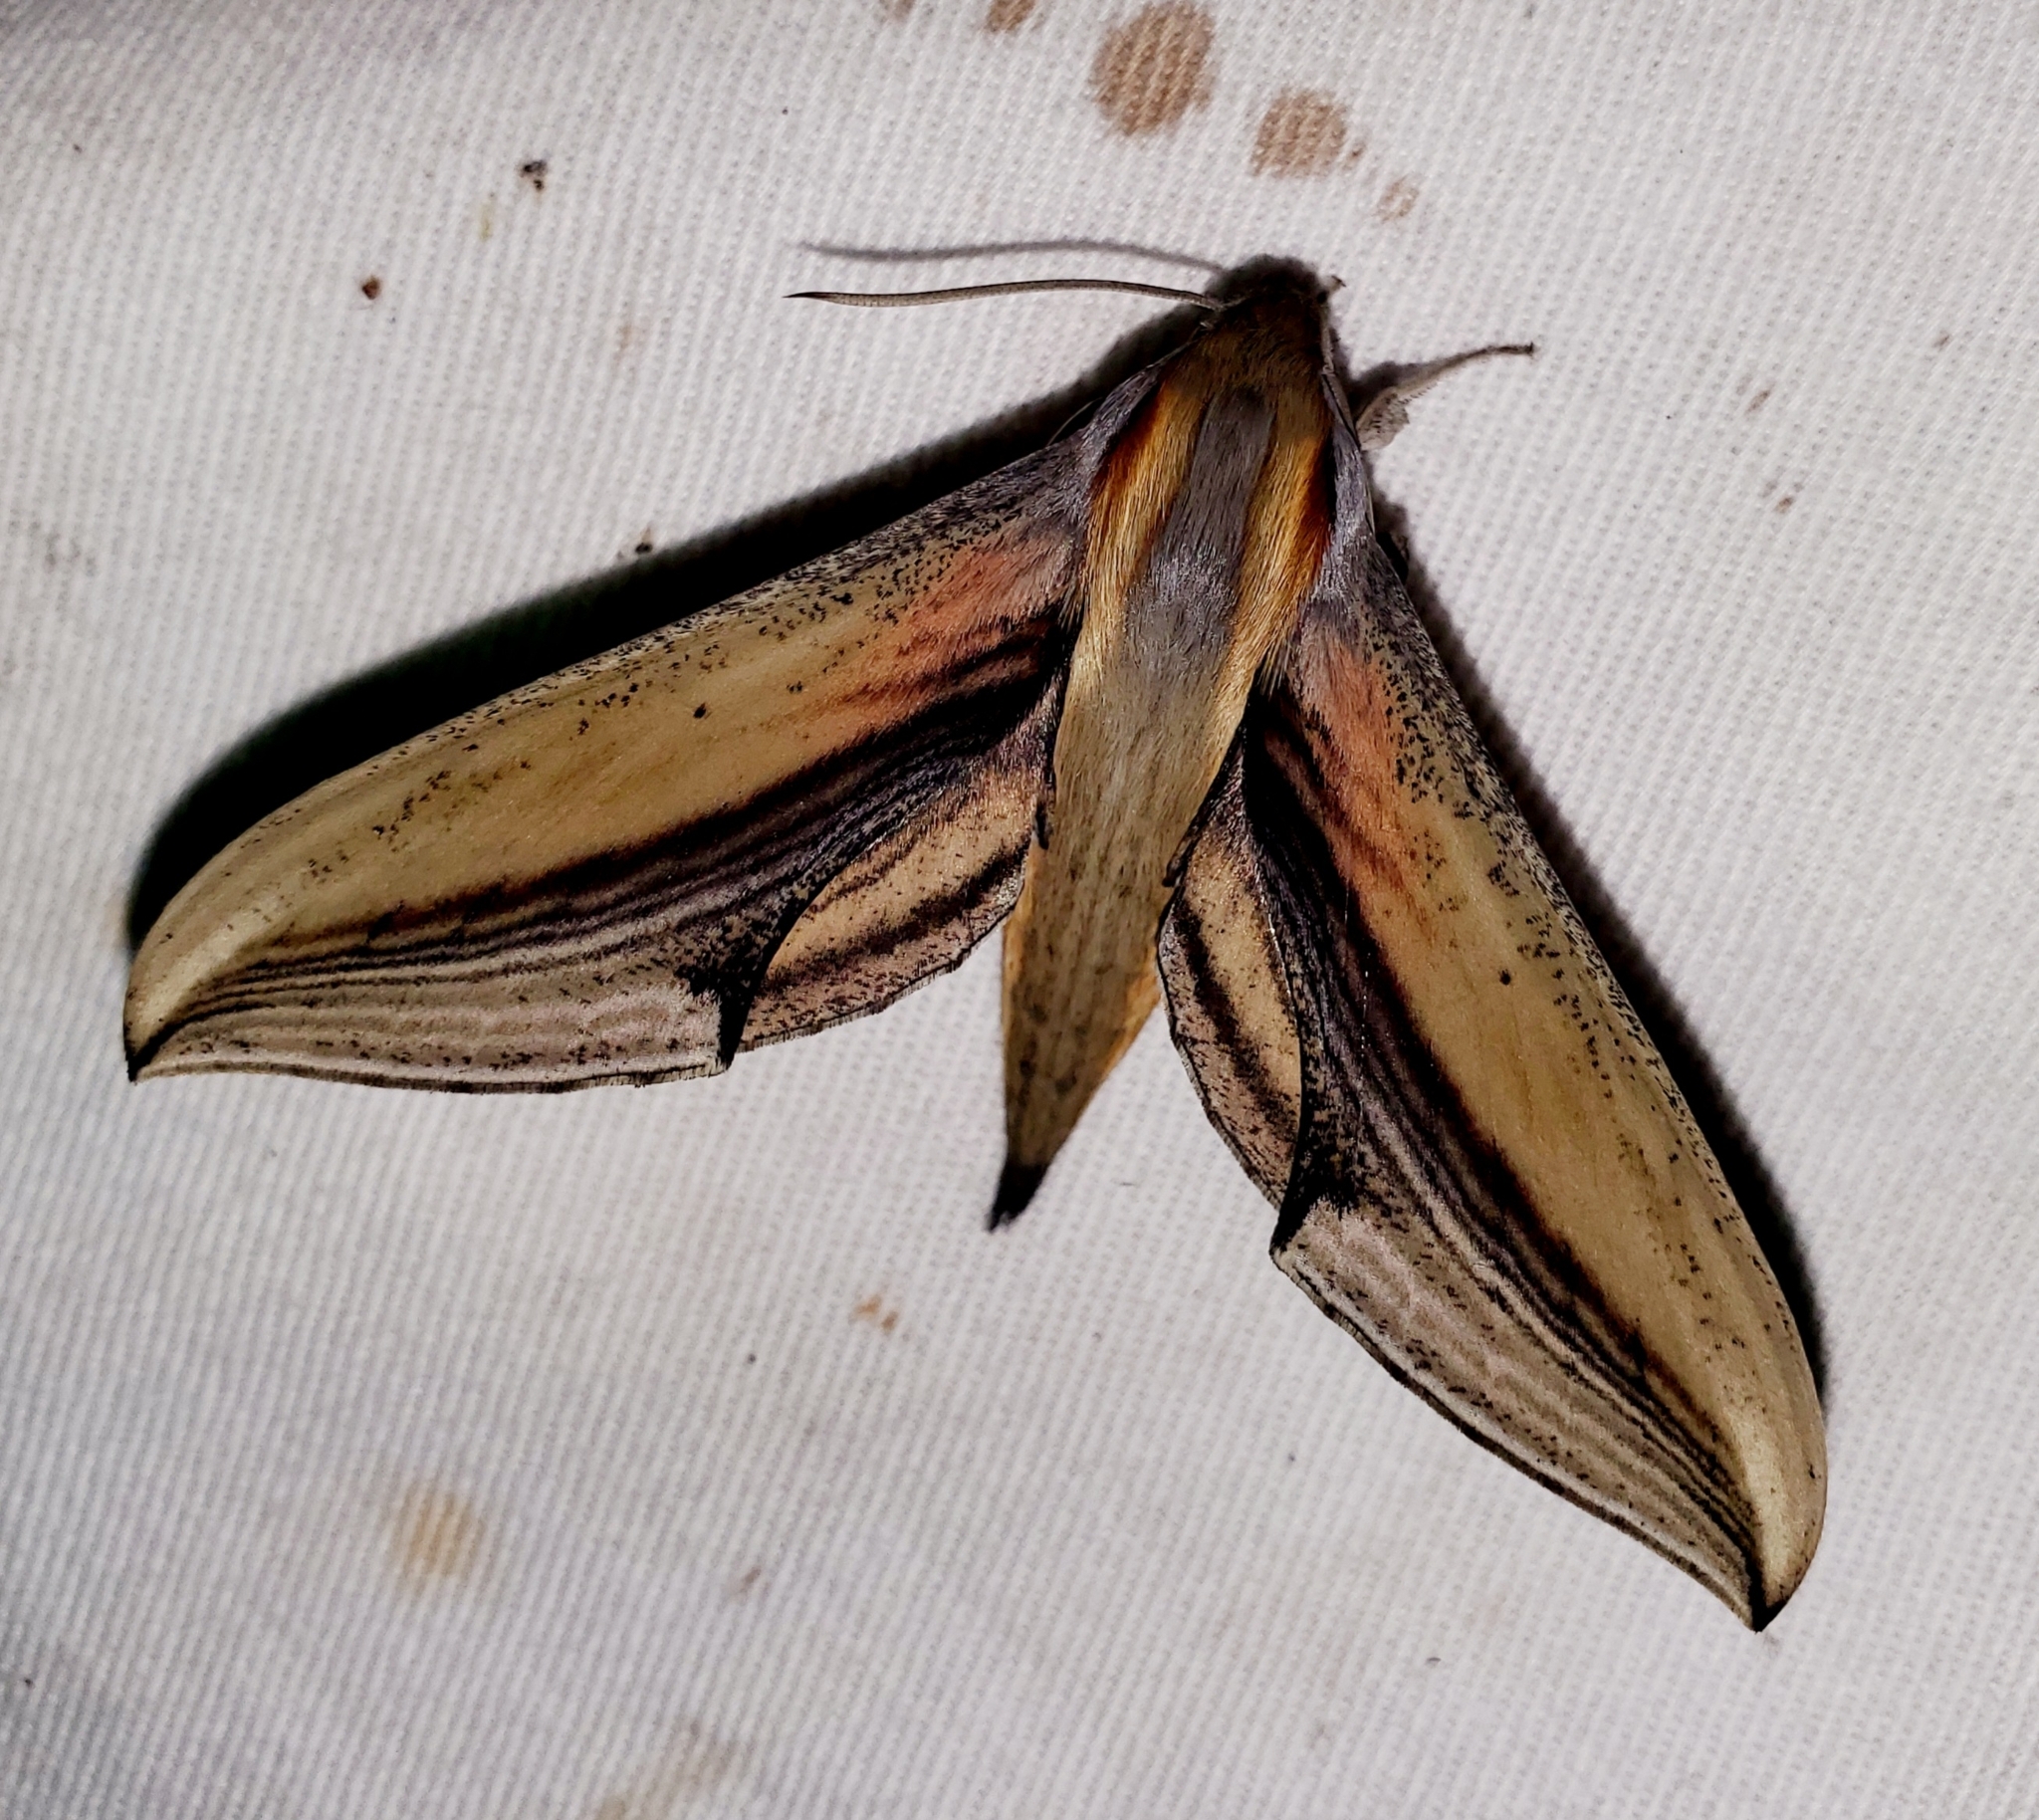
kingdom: Animalia
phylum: Arthropoda
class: Insecta
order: Lepidoptera
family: Sphingidae
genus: Xylophanes
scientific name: Xylophanes falco
